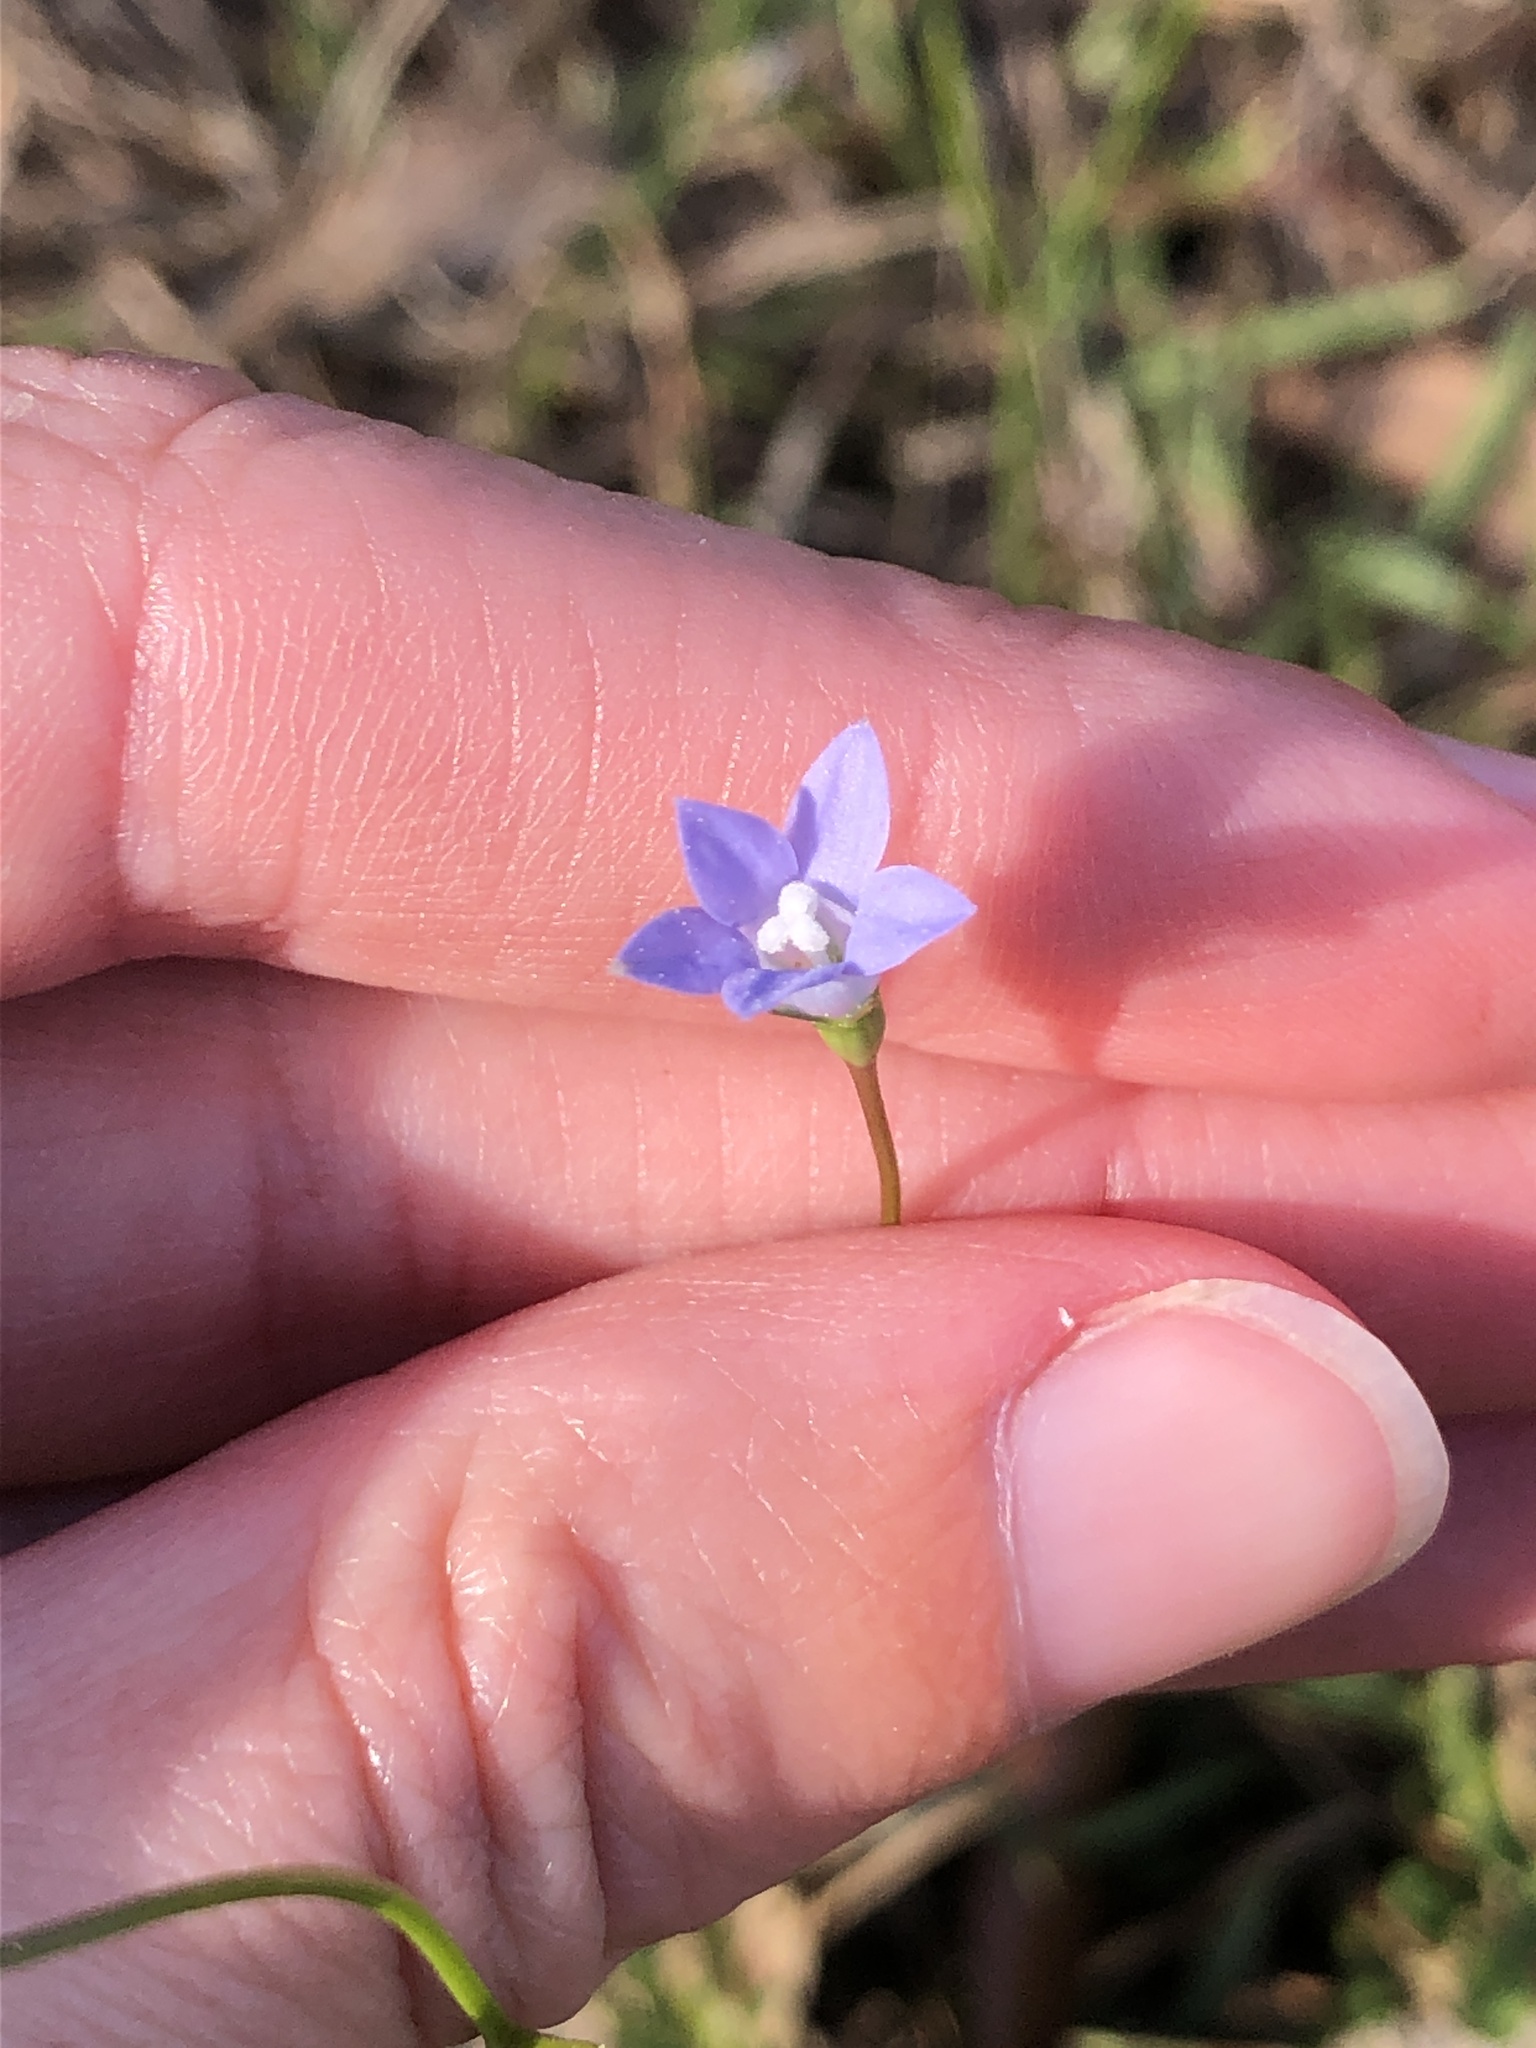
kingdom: Plantae
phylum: Tracheophyta
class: Magnoliopsida
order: Asterales
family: Campanulaceae
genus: Wahlenbergia
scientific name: Wahlenbergia marginata
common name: Southern rockbell
